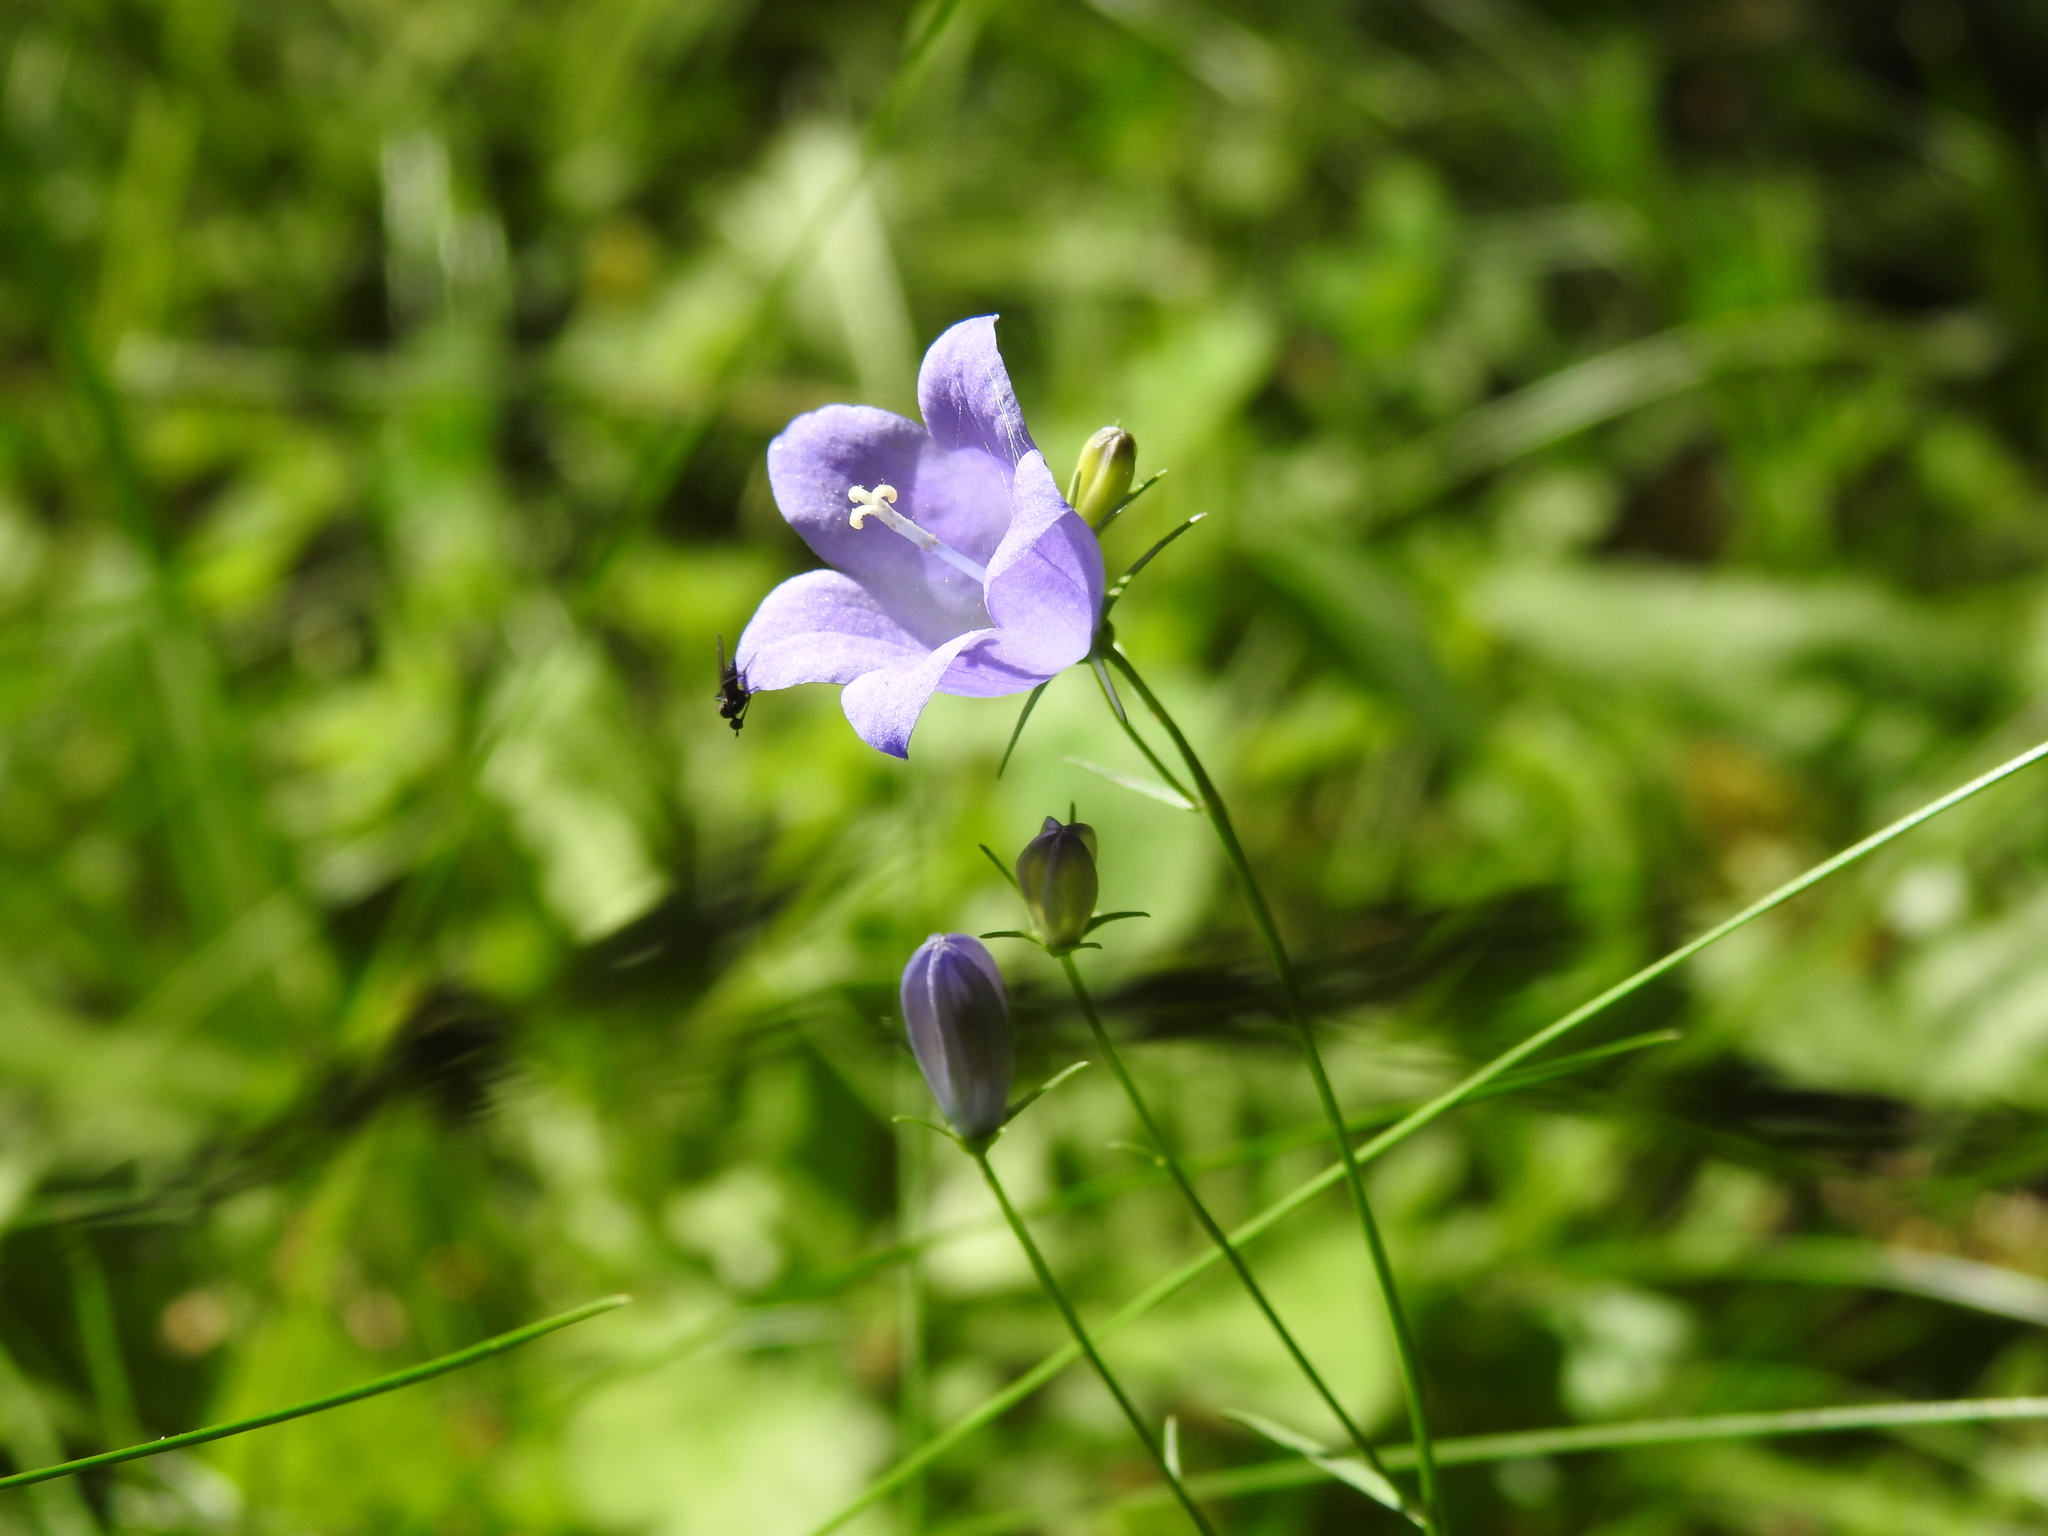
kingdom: Plantae
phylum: Tracheophyta
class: Magnoliopsida
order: Asterales
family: Campanulaceae
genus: Campanula
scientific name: Campanula rotundifolia
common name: Harebell
